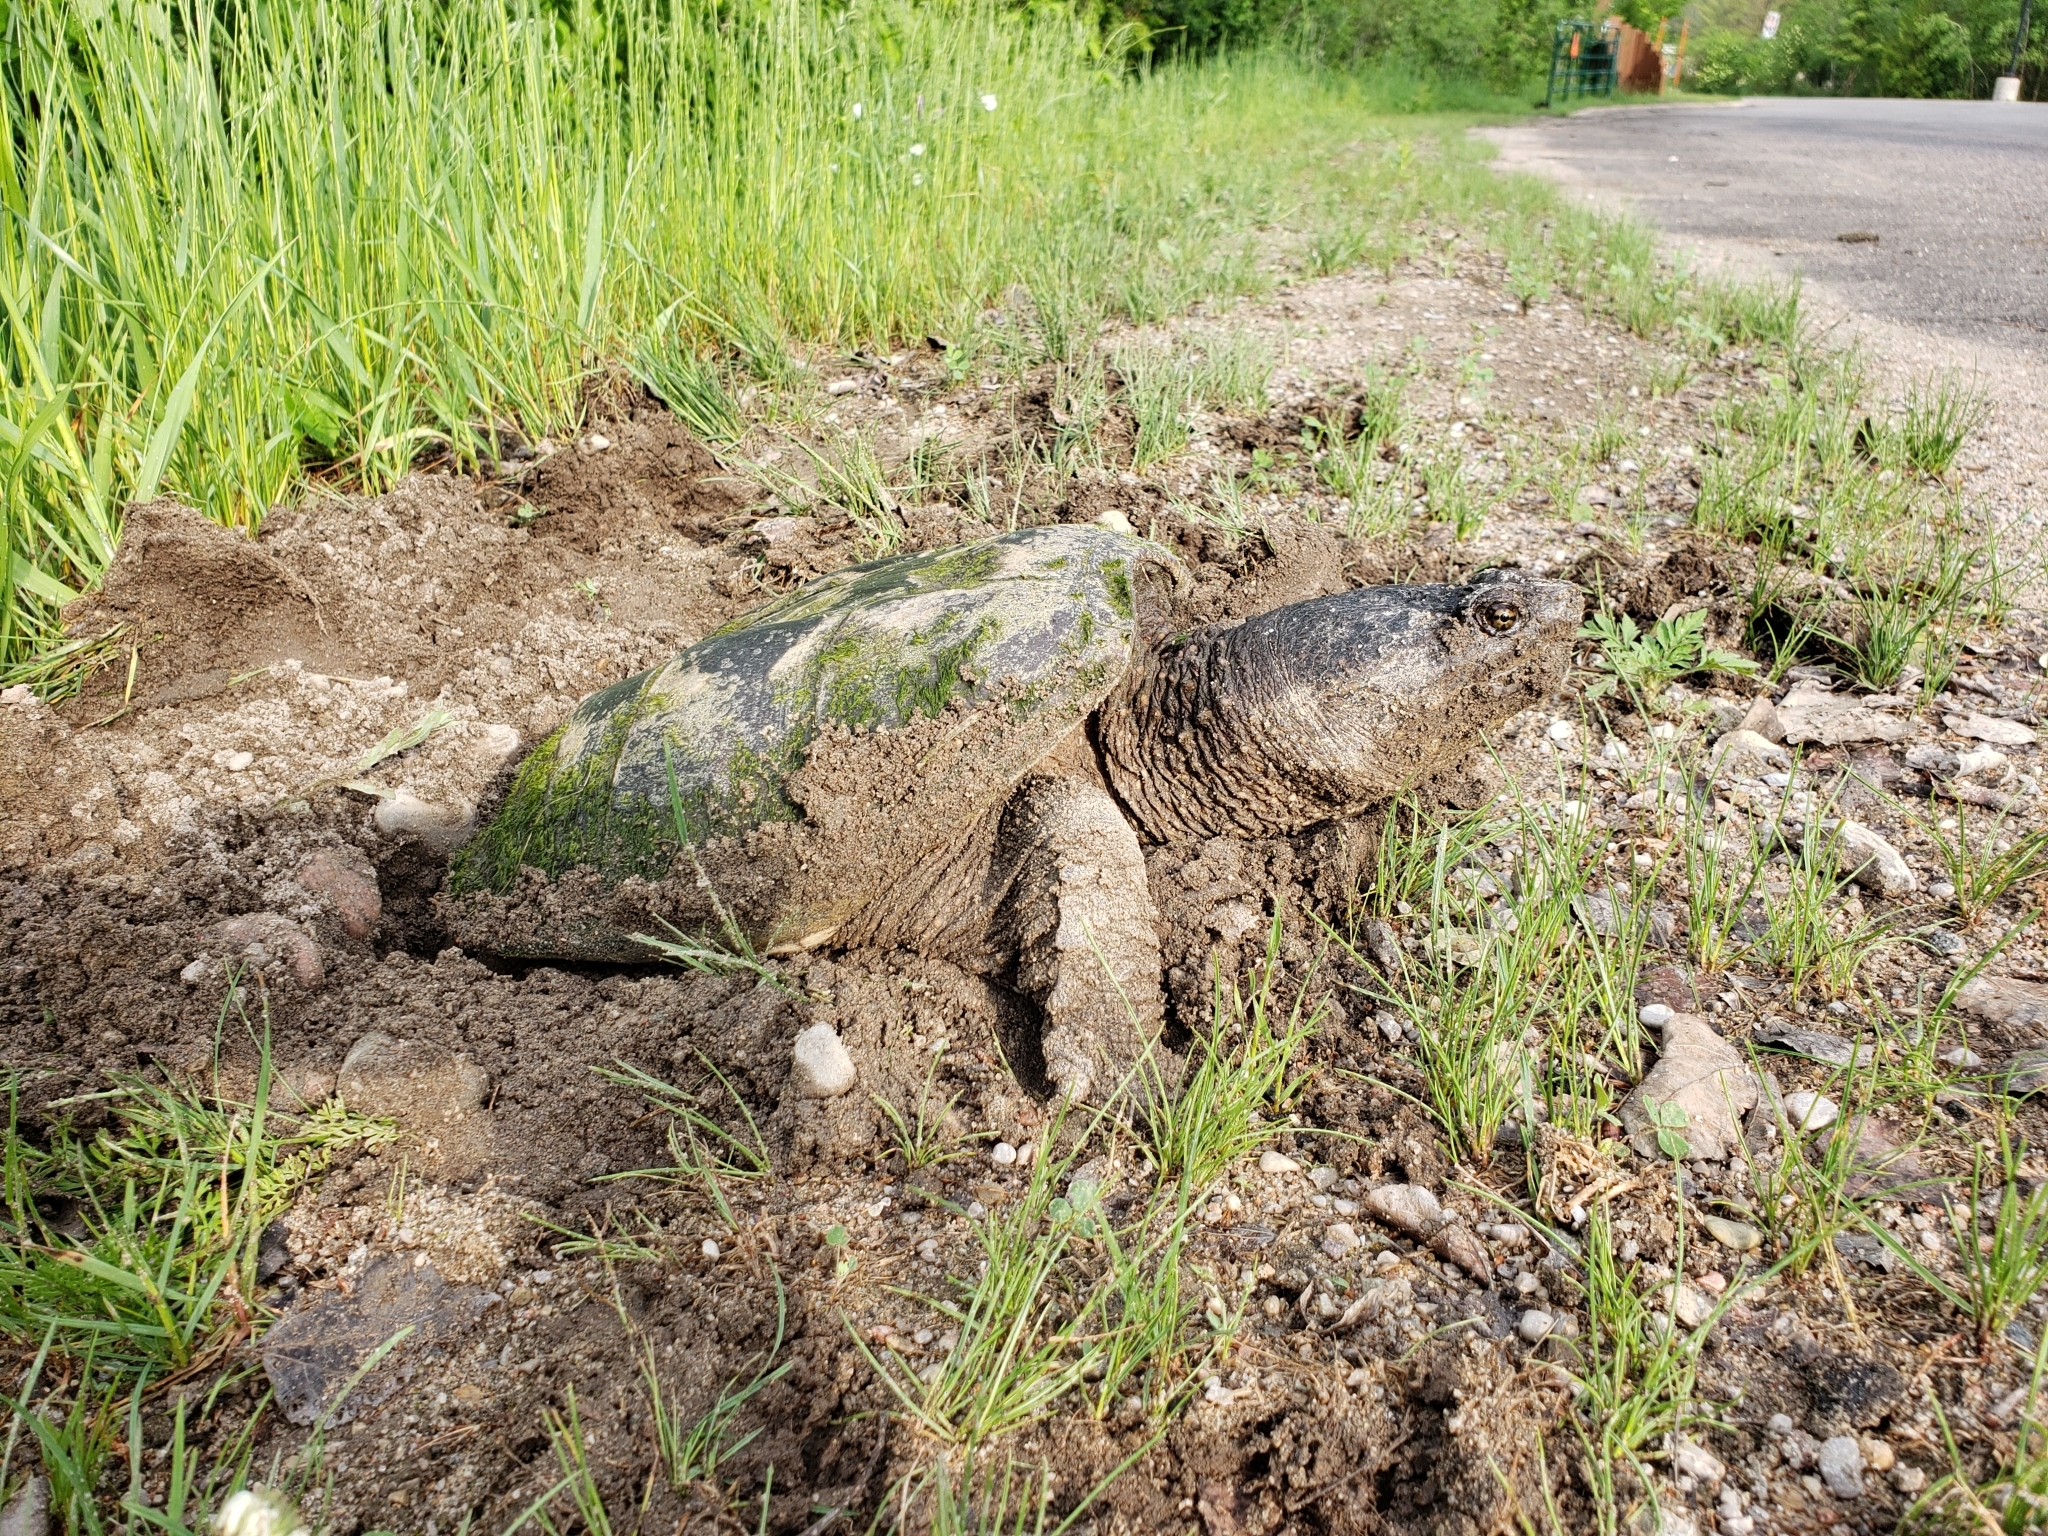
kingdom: Animalia
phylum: Chordata
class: Testudines
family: Chelydridae
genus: Chelydra
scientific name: Chelydra serpentina
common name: Common snapping turtle
